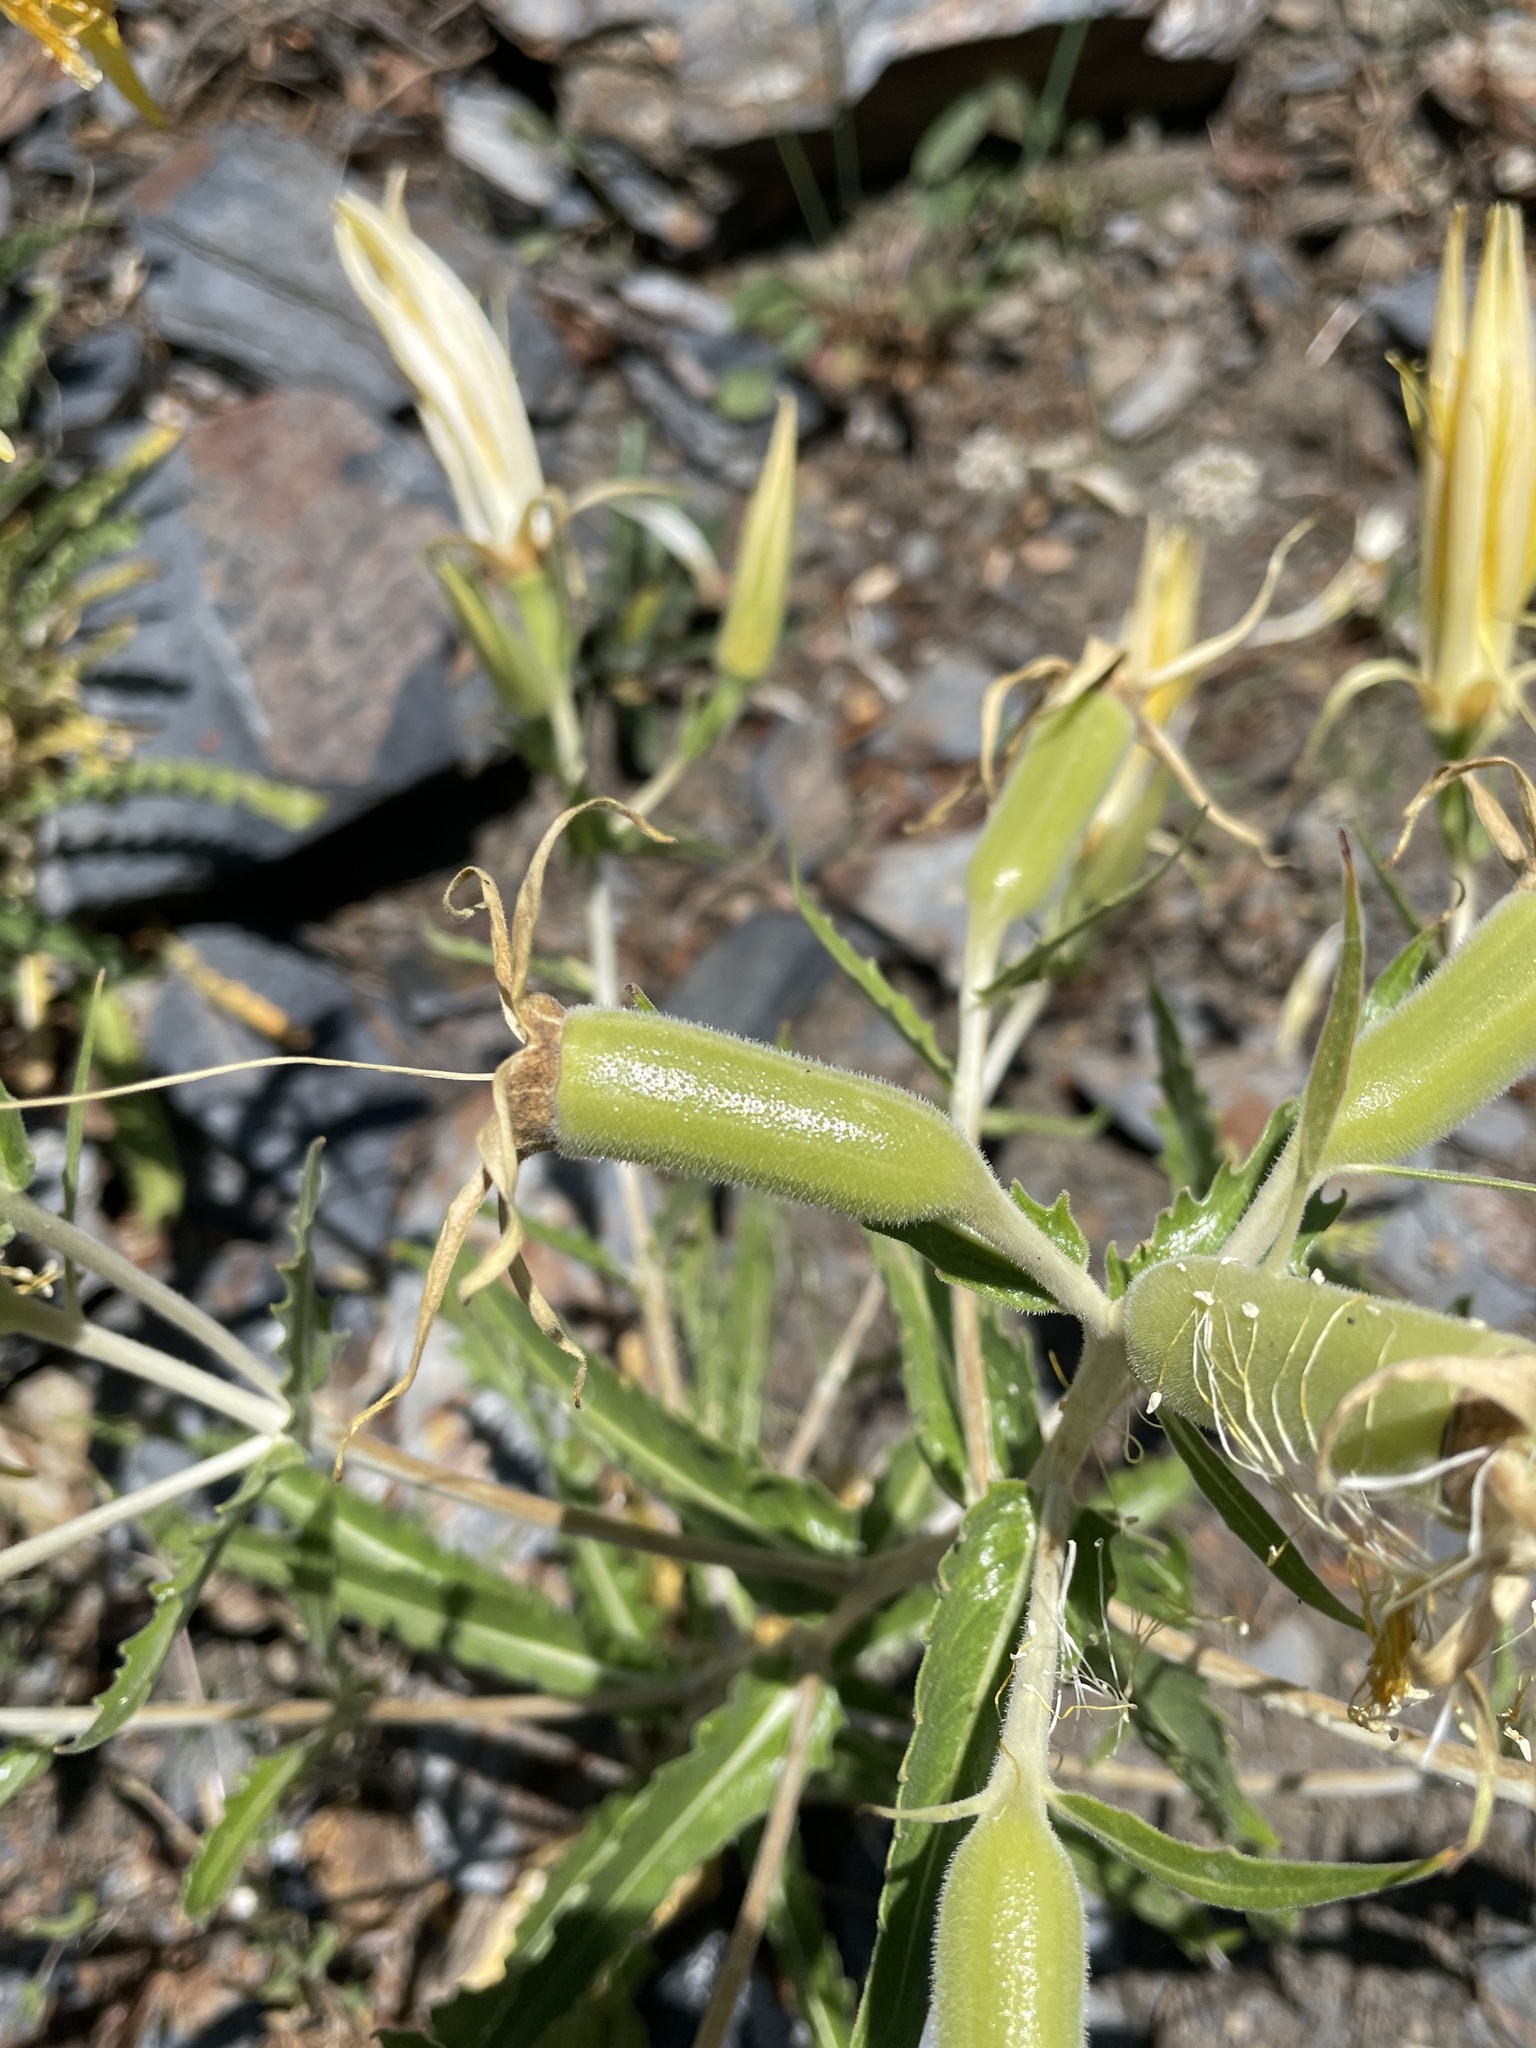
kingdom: Plantae
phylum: Tracheophyta
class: Magnoliopsida
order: Cornales
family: Loasaceae
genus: Mentzelia
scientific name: Mentzelia laevicaulis
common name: Smooth-stem blazingstar
